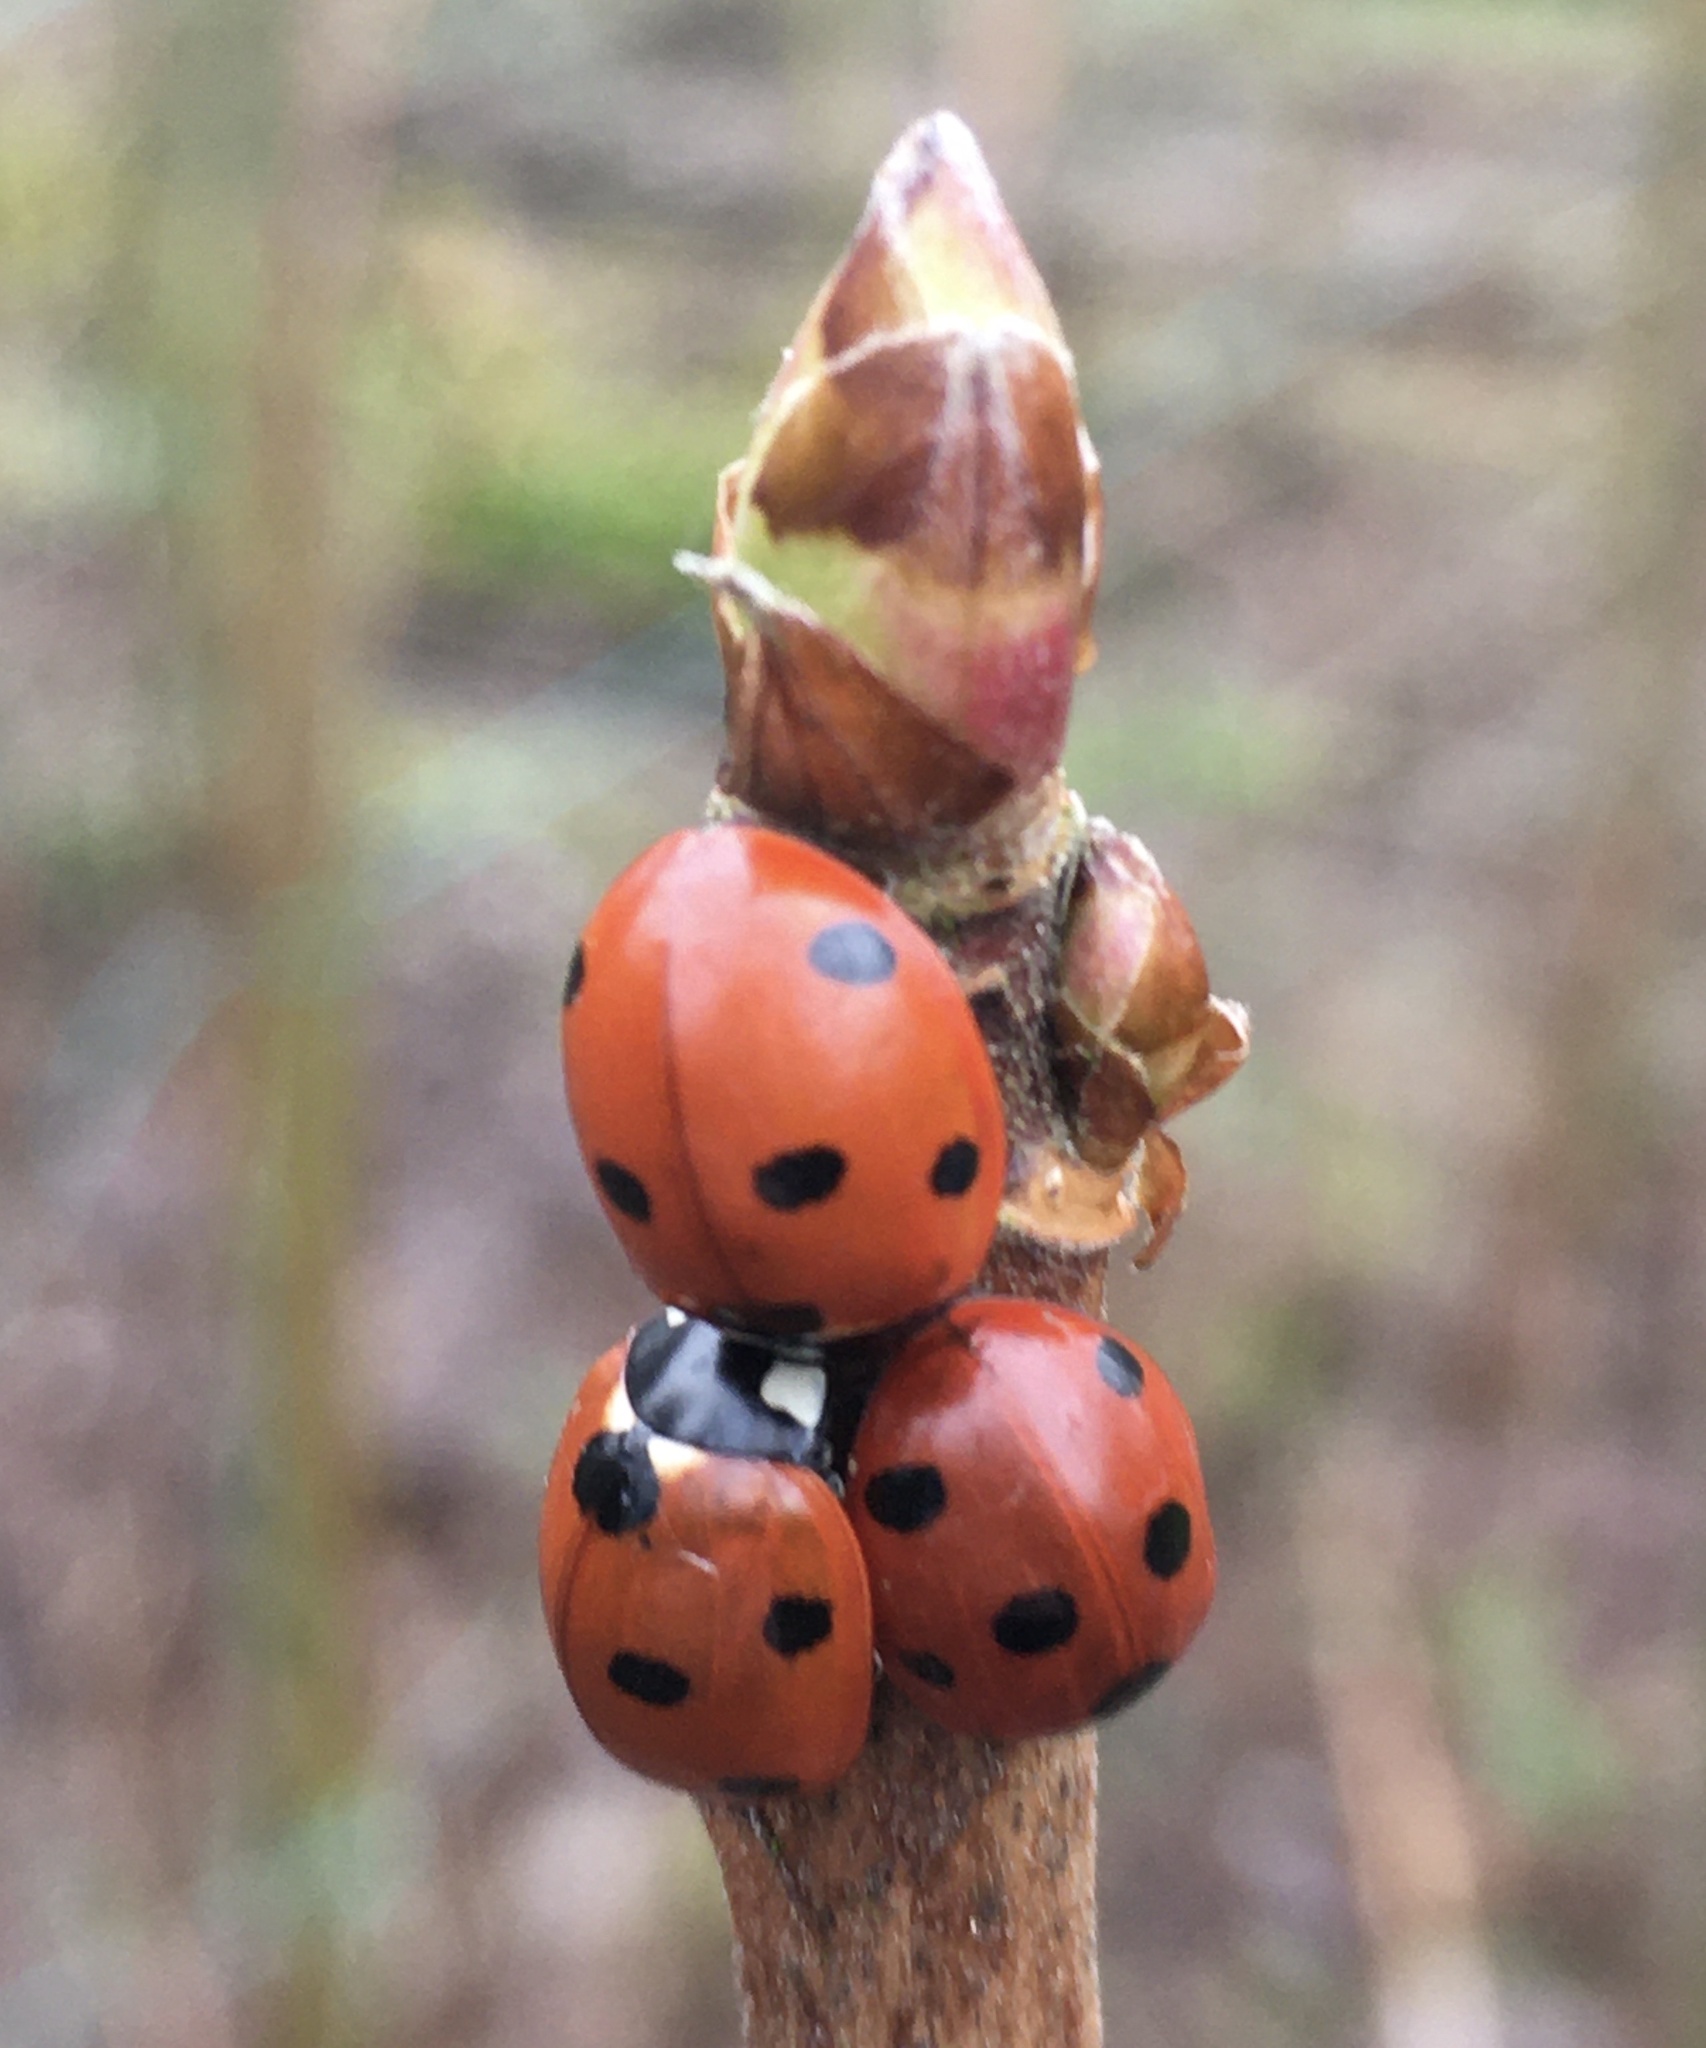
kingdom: Animalia
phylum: Arthropoda
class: Insecta
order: Coleoptera
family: Coccinellidae
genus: Coccinella
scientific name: Coccinella septempunctata
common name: Sevenspotted lady beetle
